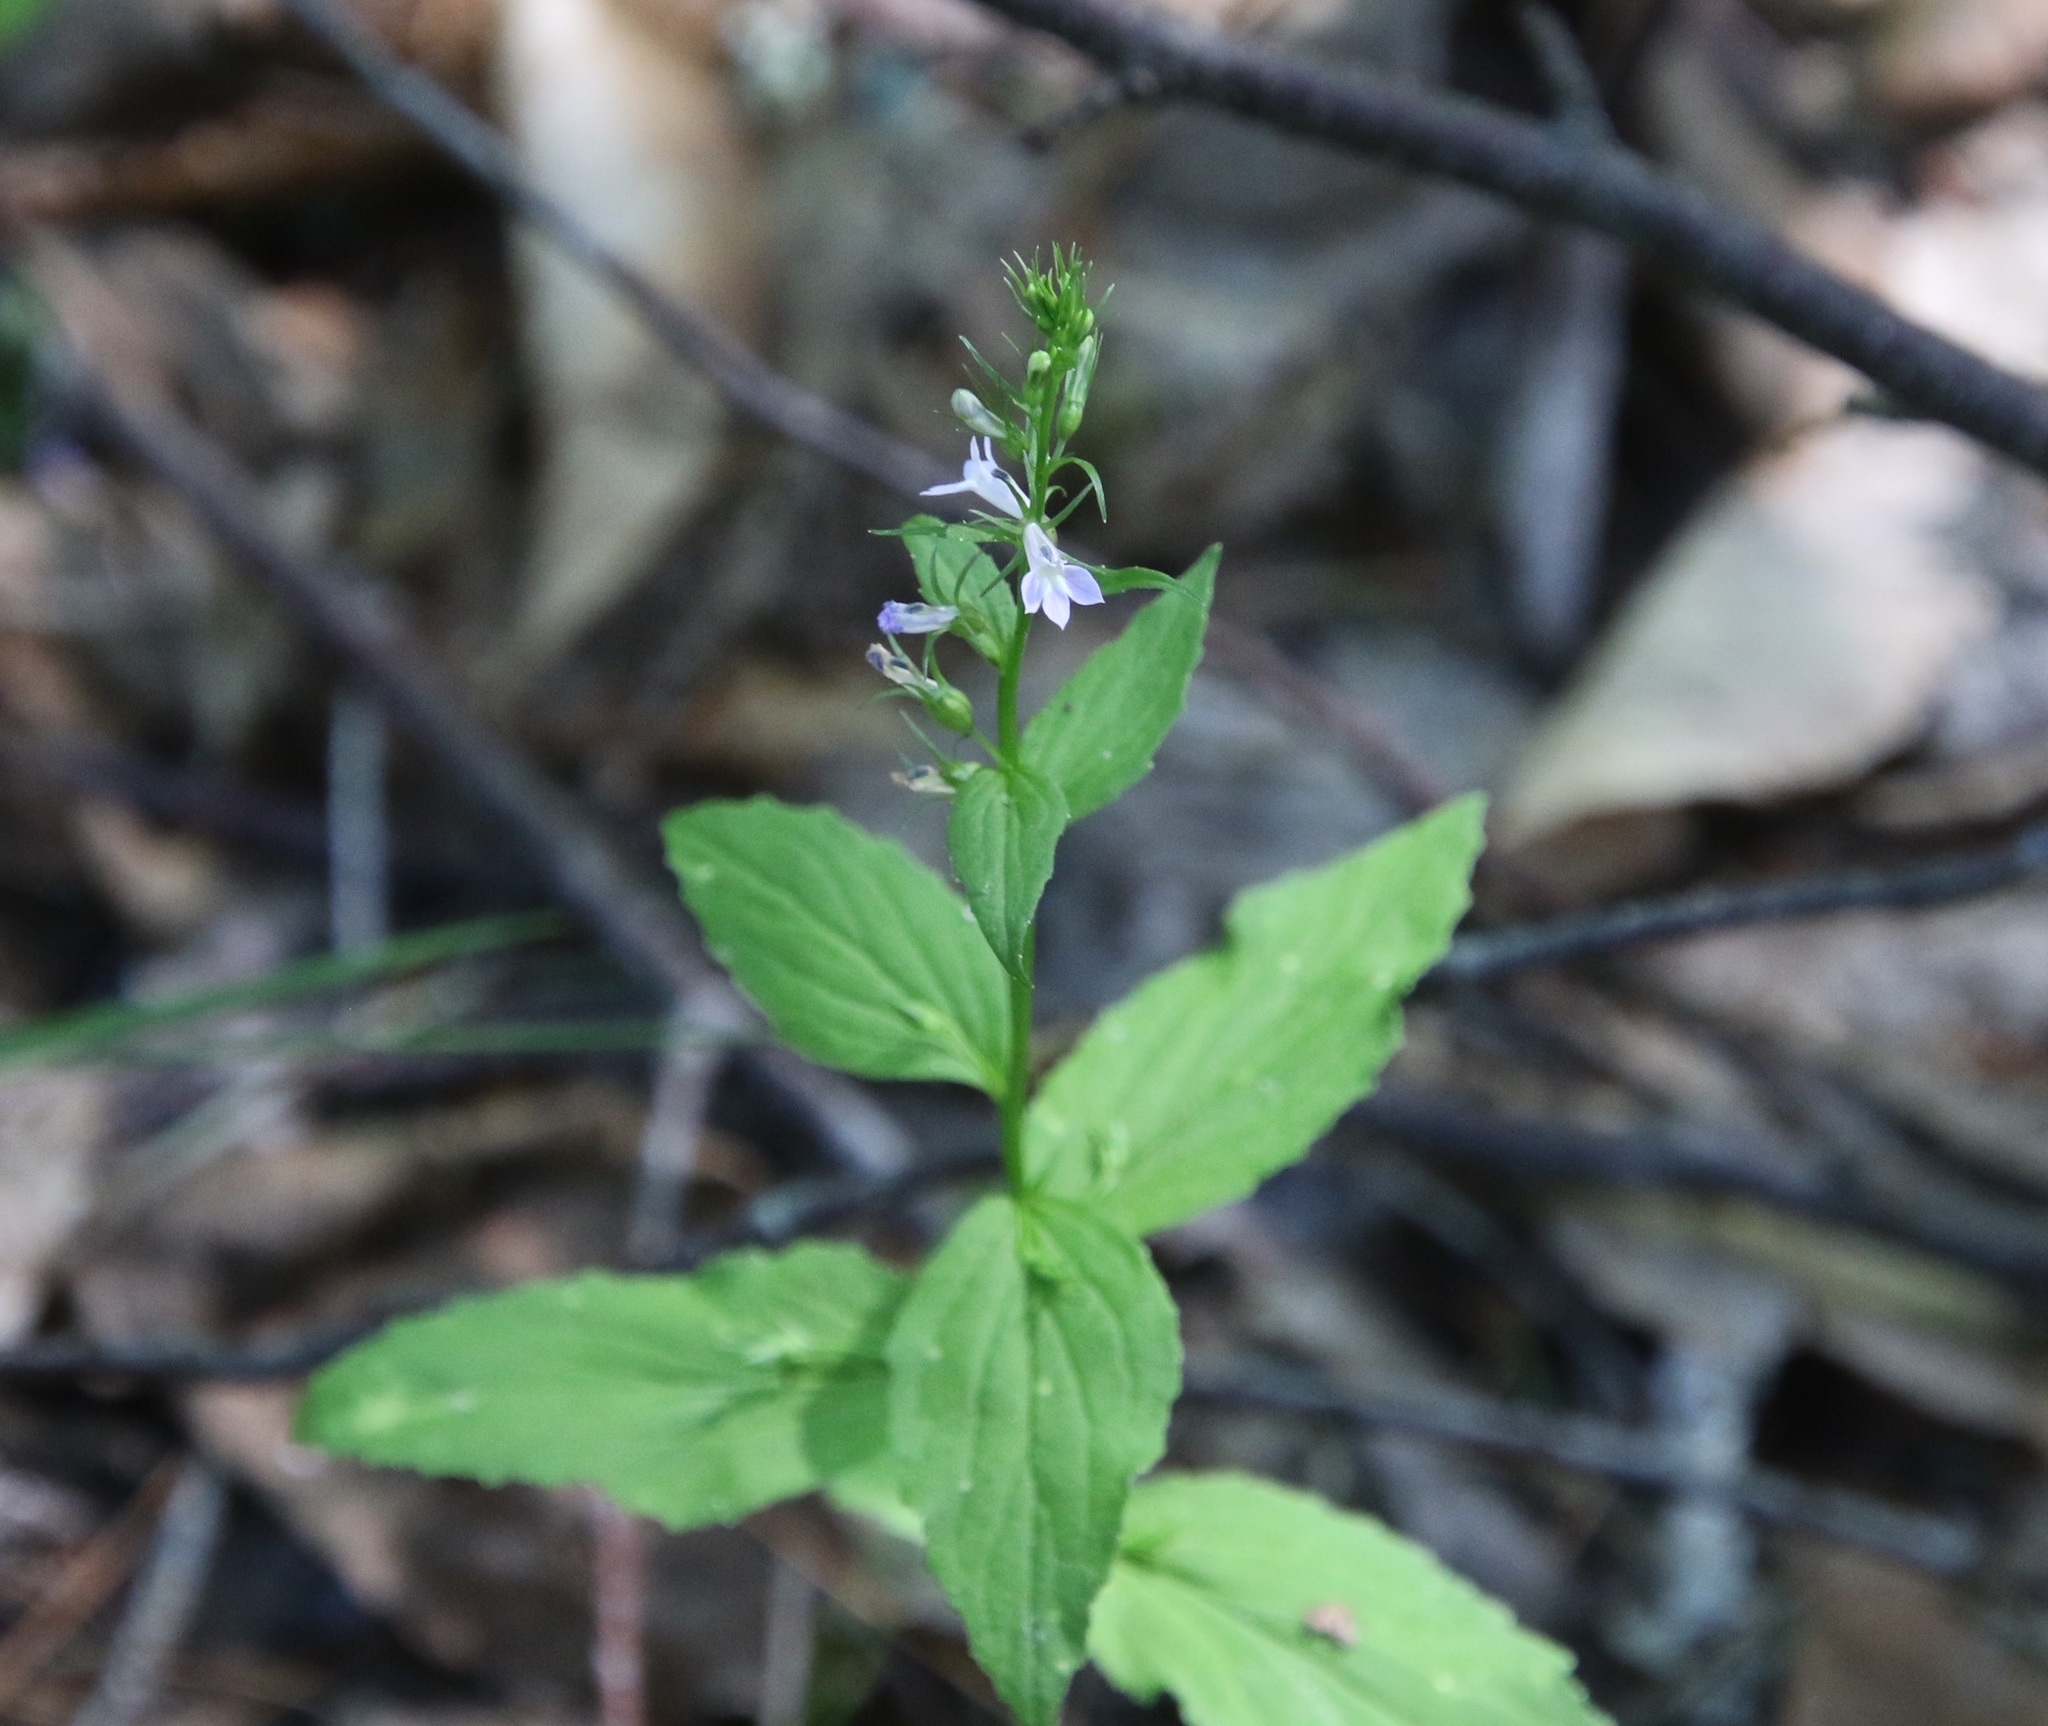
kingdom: Plantae
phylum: Tracheophyta
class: Magnoliopsida
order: Asterales
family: Campanulaceae
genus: Lobelia
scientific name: Lobelia inflata
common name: Indian tobacco
